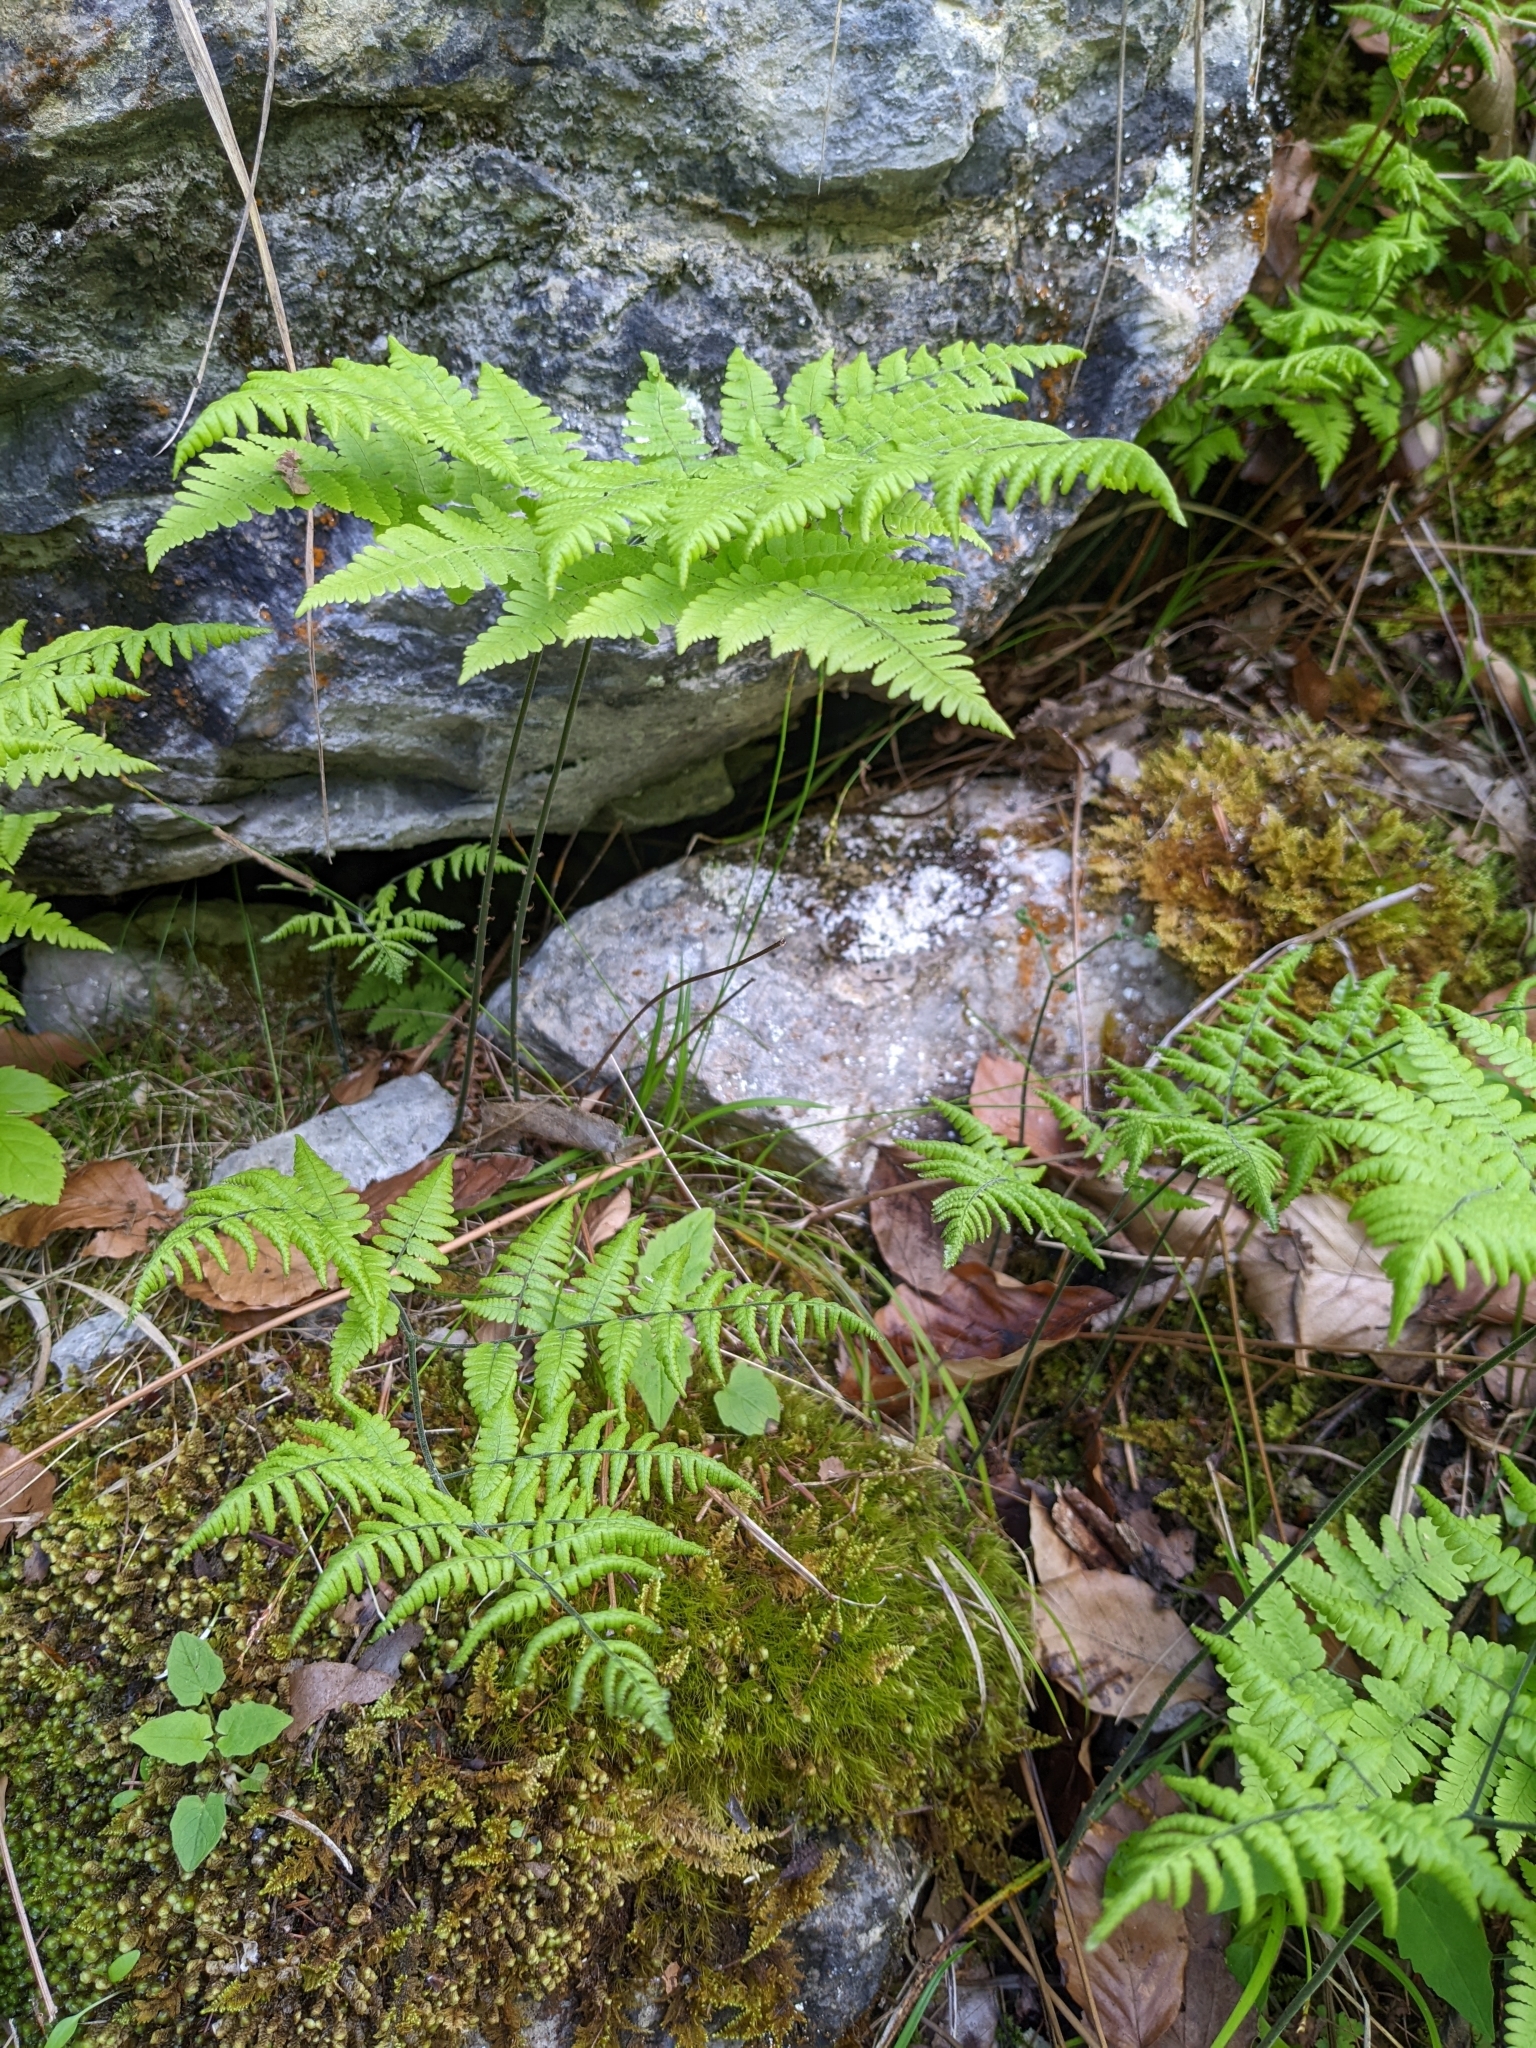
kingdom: Plantae
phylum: Tracheophyta
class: Polypodiopsida
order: Polypodiales
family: Cystopteridaceae
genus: Gymnocarpium
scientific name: Gymnocarpium robertianum
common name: Limestone fern
